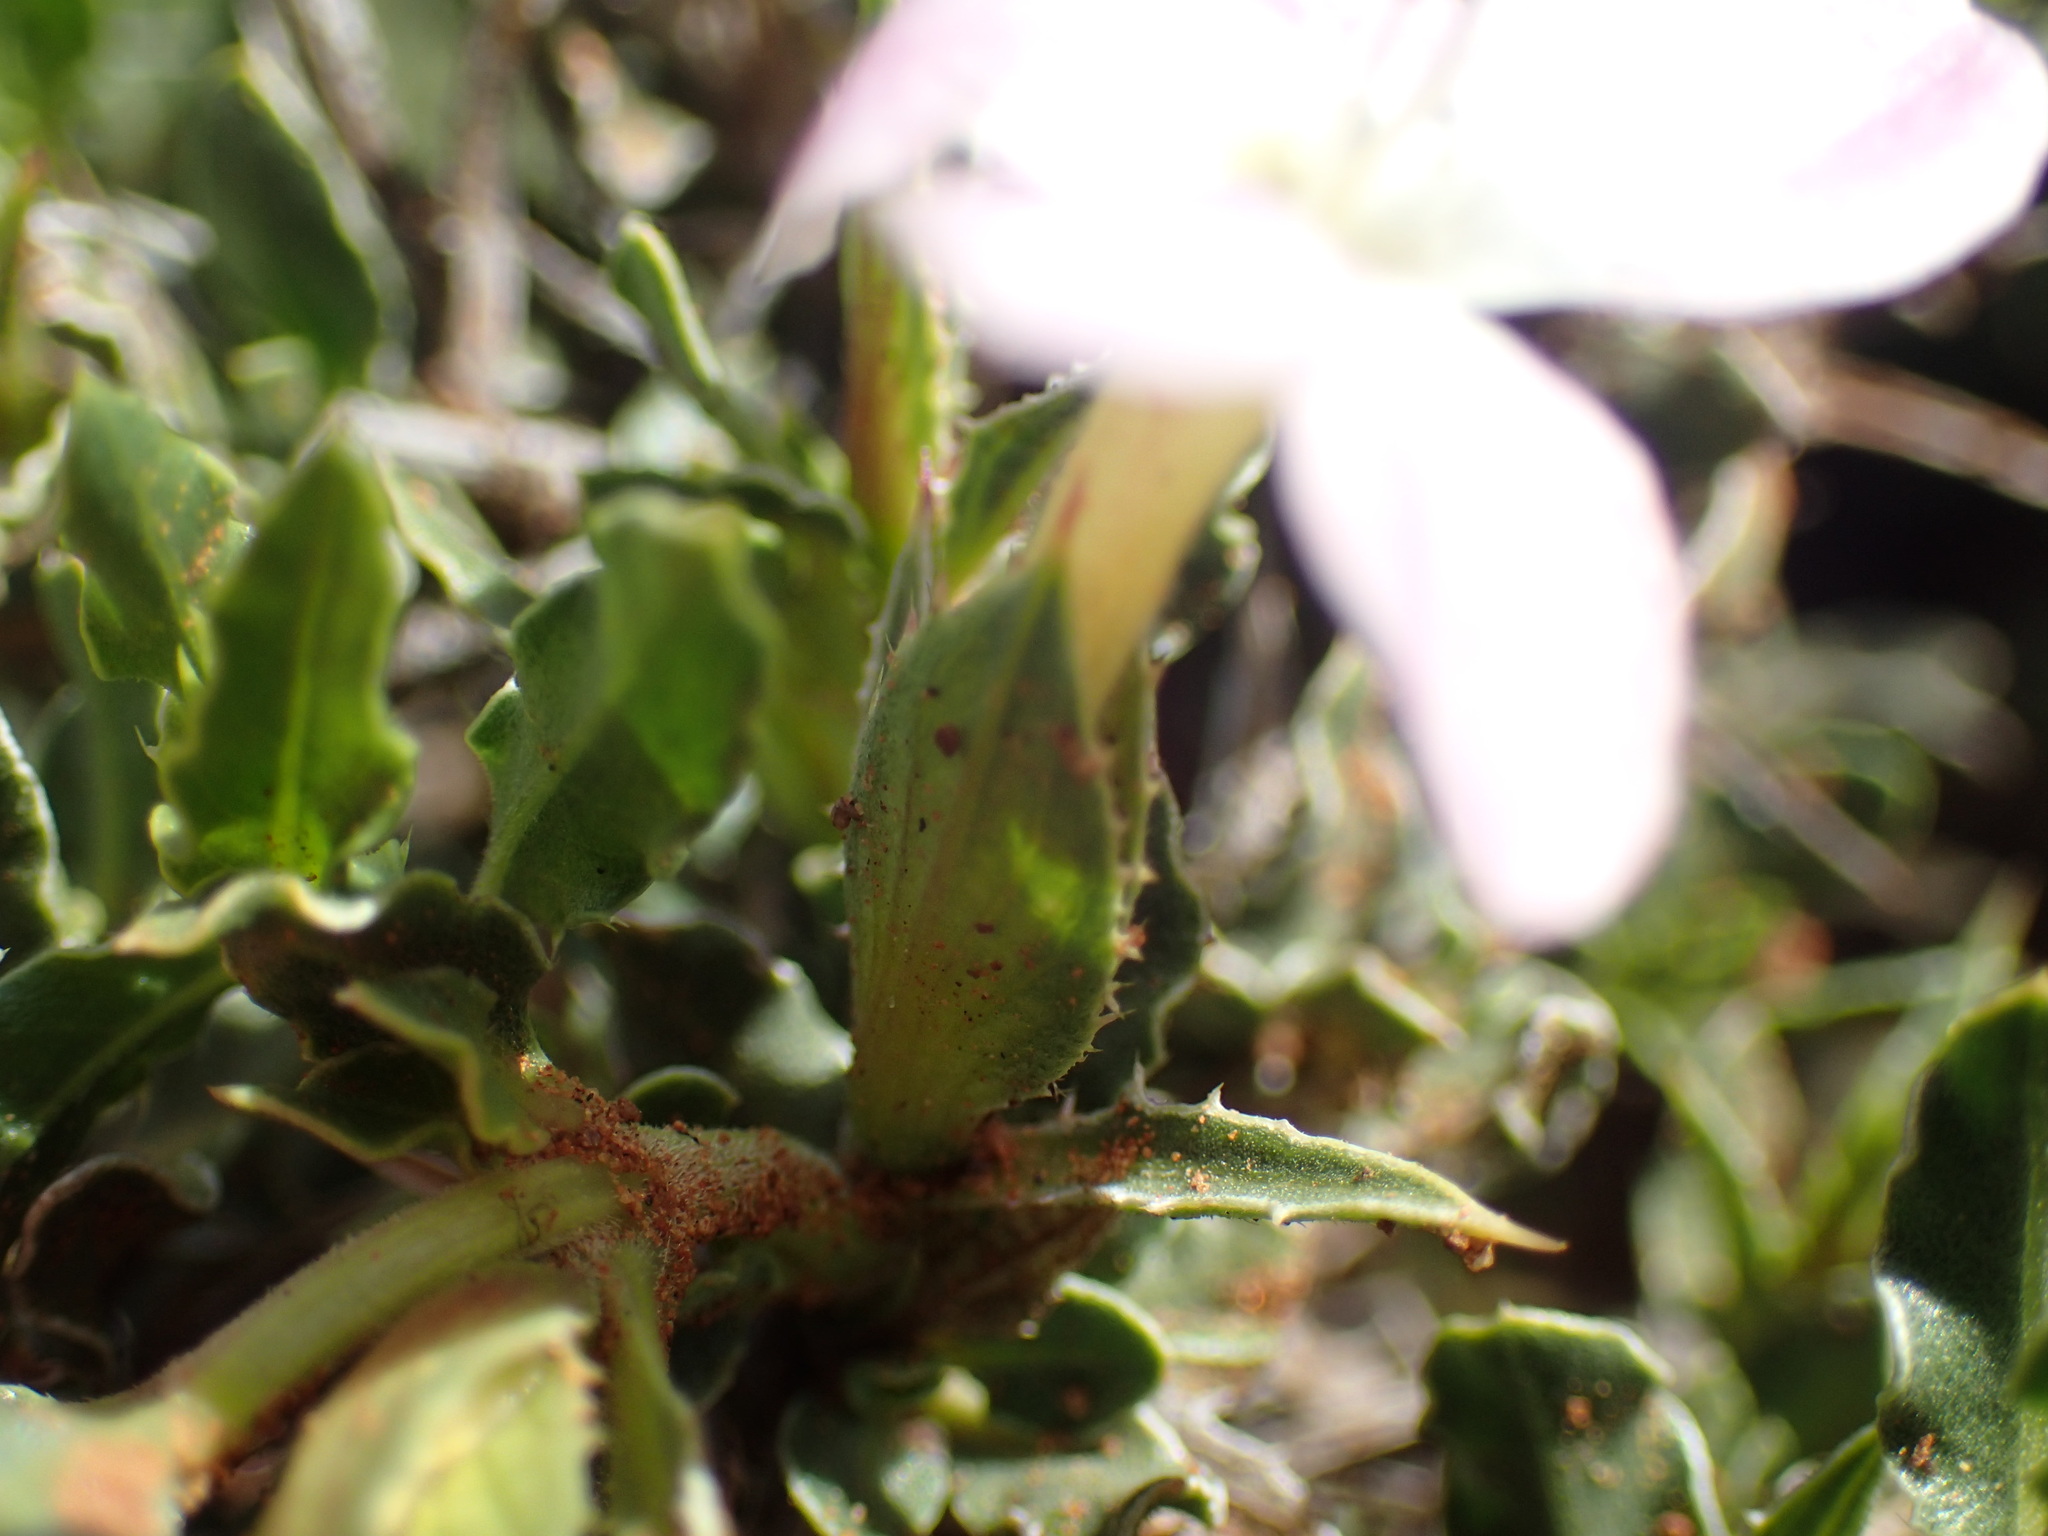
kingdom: Plantae
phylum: Tracheophyta
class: Magnoliopsida
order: Lamiales
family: Acanthaceae
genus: Barleria
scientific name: Barleria rigida
